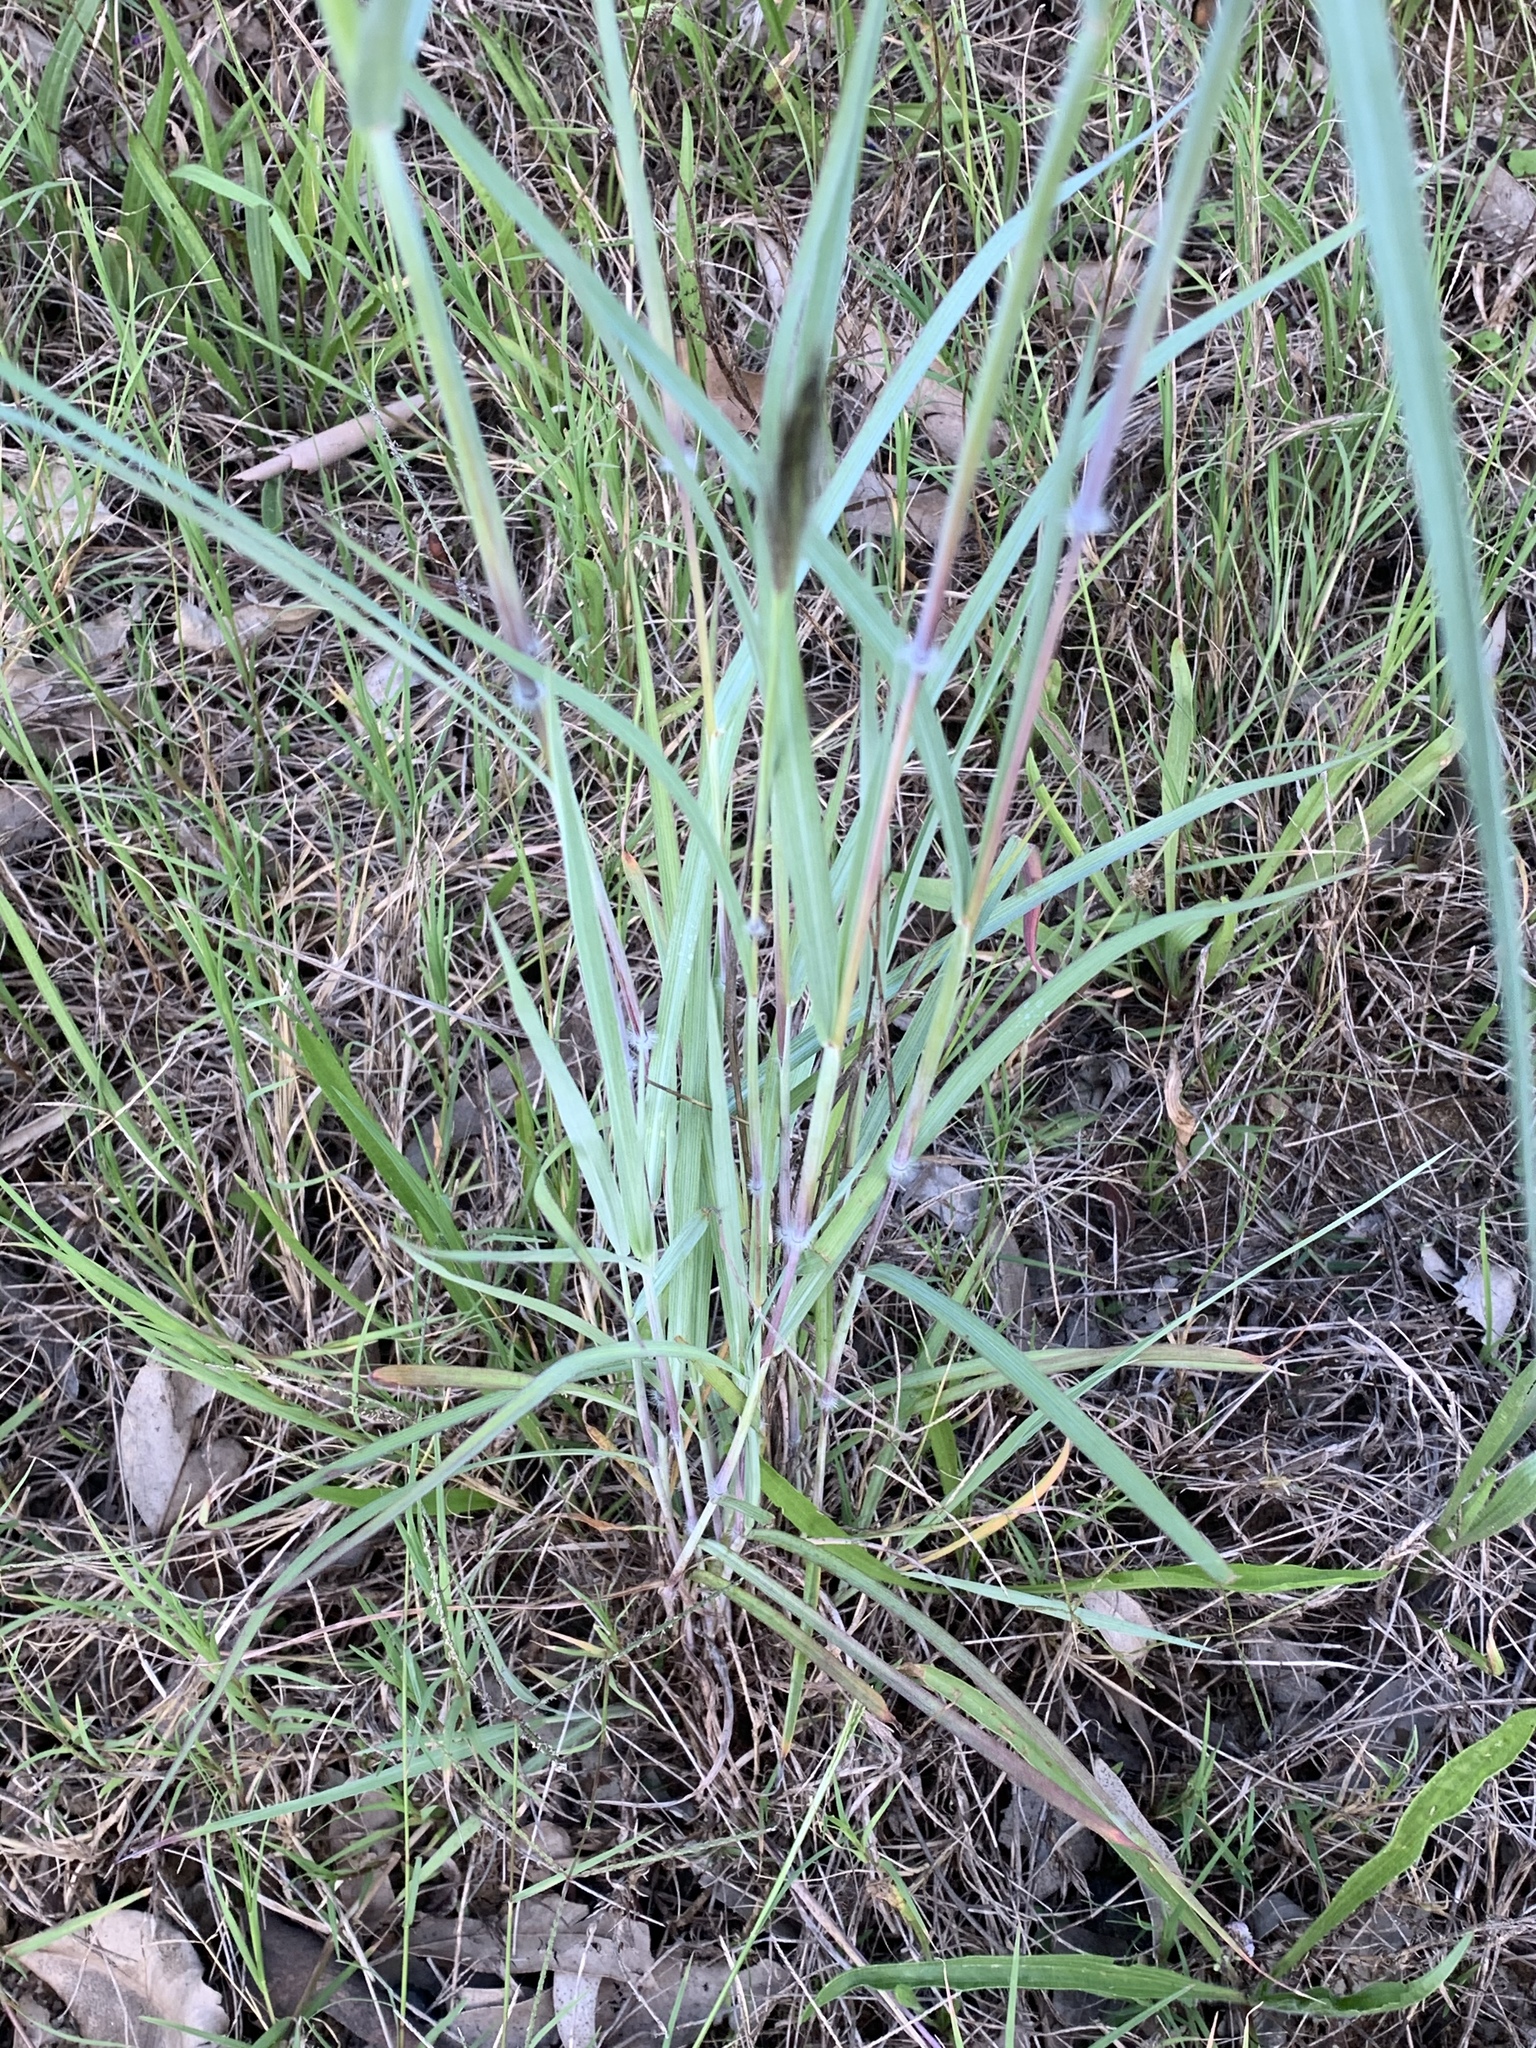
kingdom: Plantae
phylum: Tracheophyta
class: Liliopsida
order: Poales
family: Poaceae
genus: Dichanthium
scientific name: Dichanthium sericeum
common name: Silky bluestem
